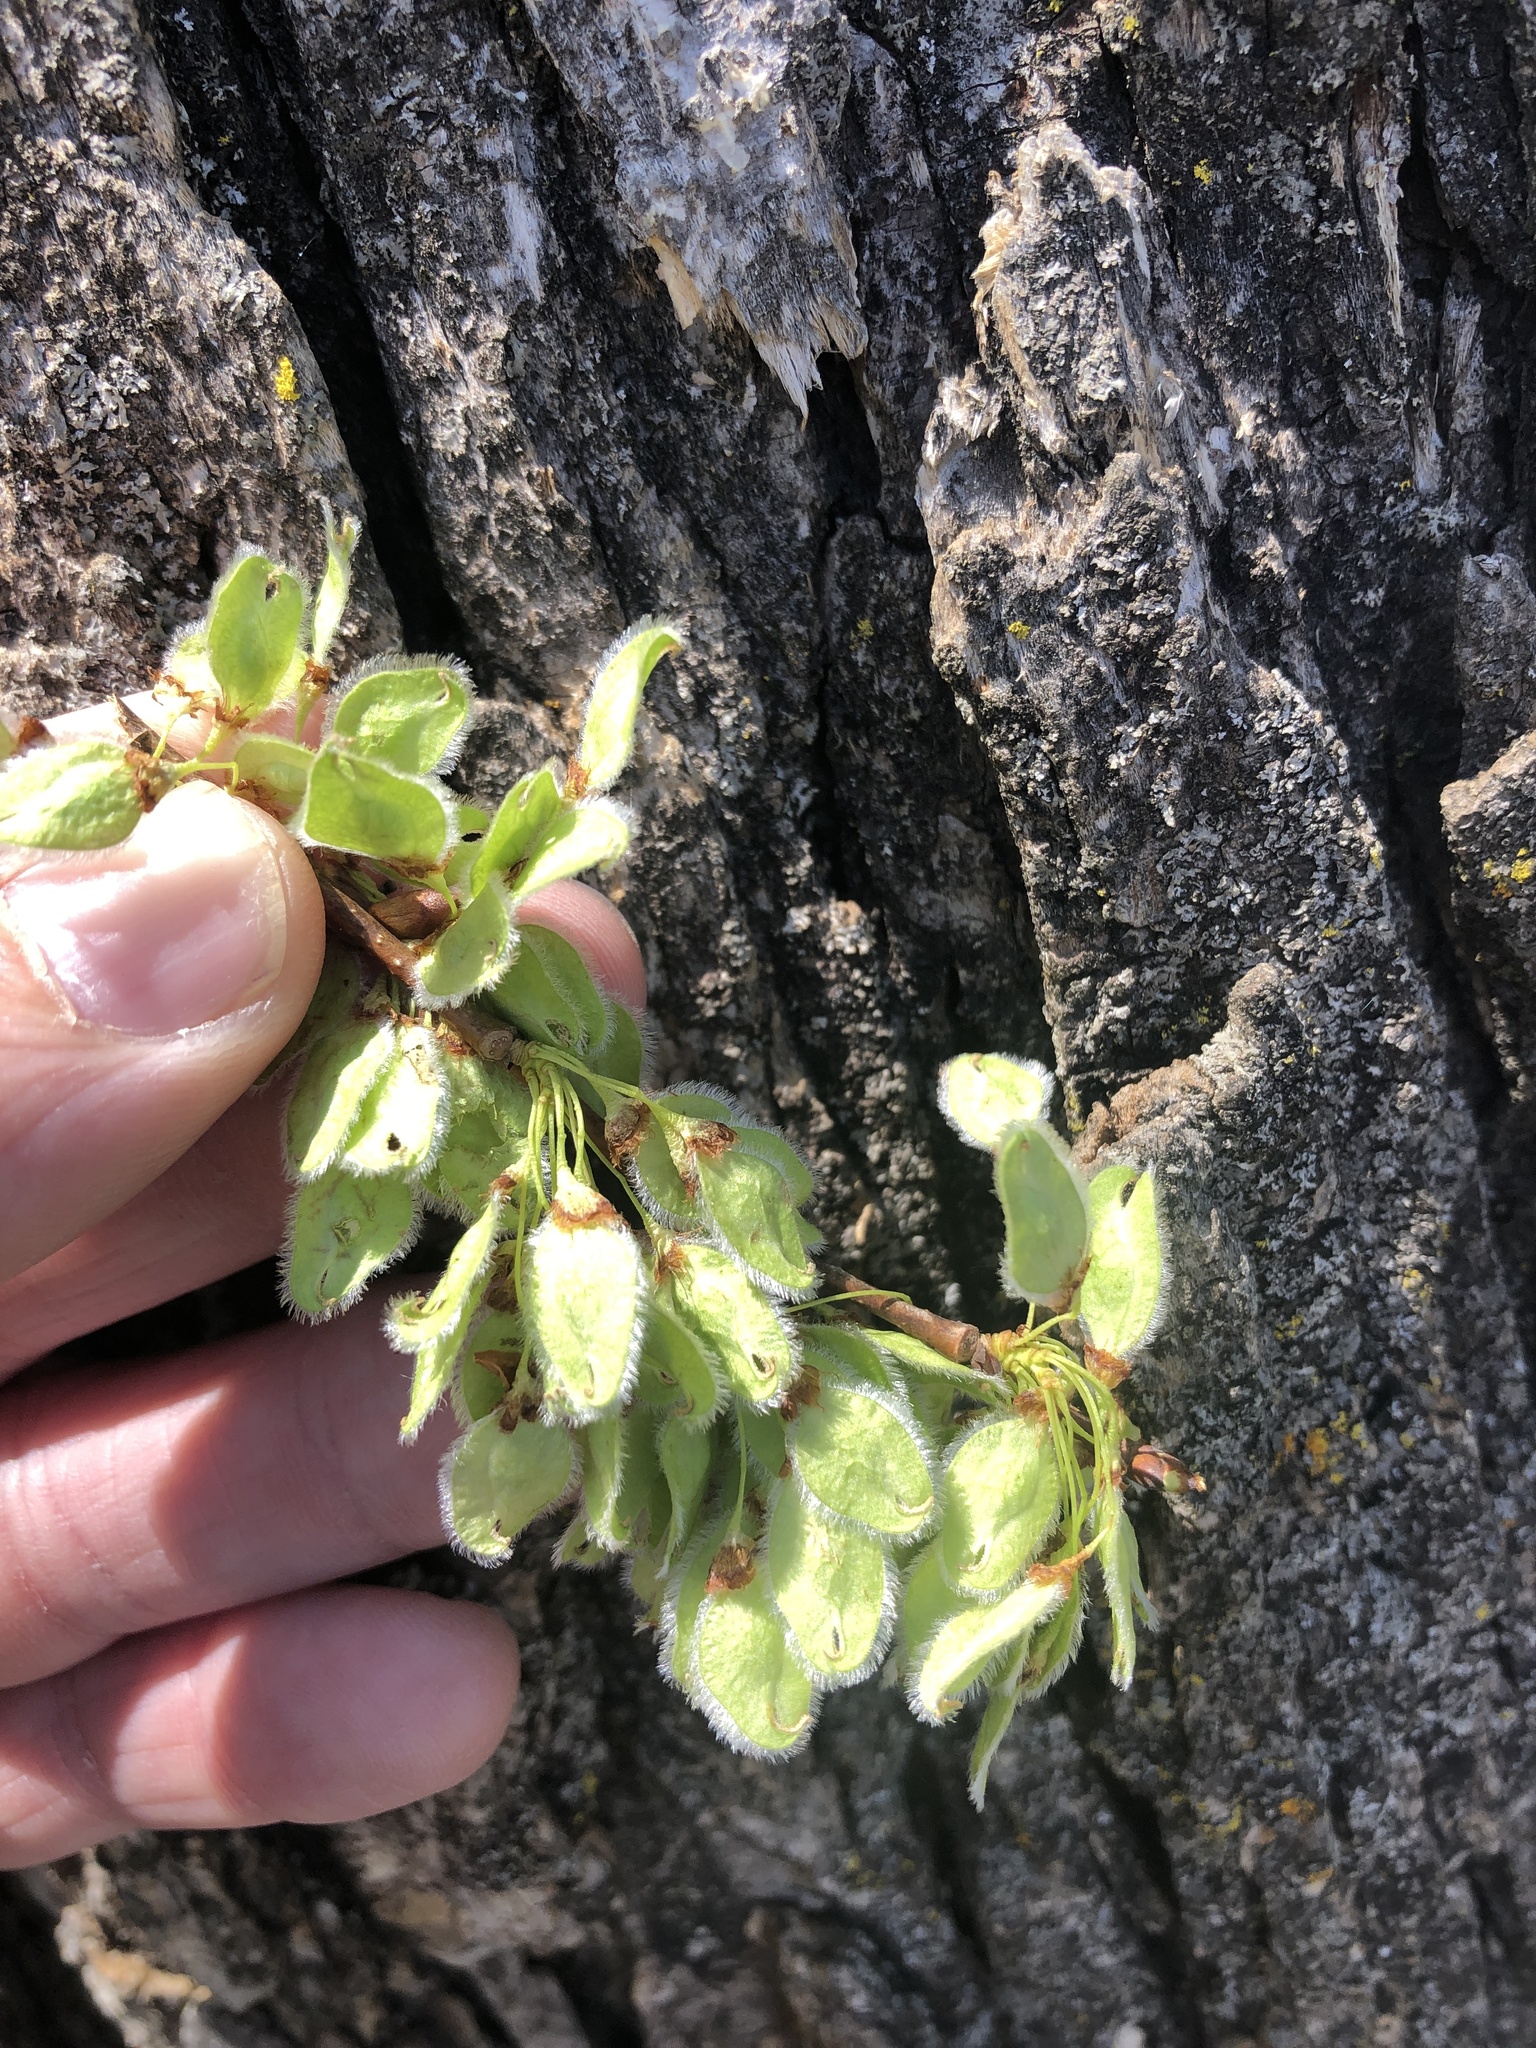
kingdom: Plantae
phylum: Tracheophyta
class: Magnoliopsida
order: Rosales
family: Ulmaceae
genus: Ulmus
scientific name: Ulmus americana
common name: American elm
